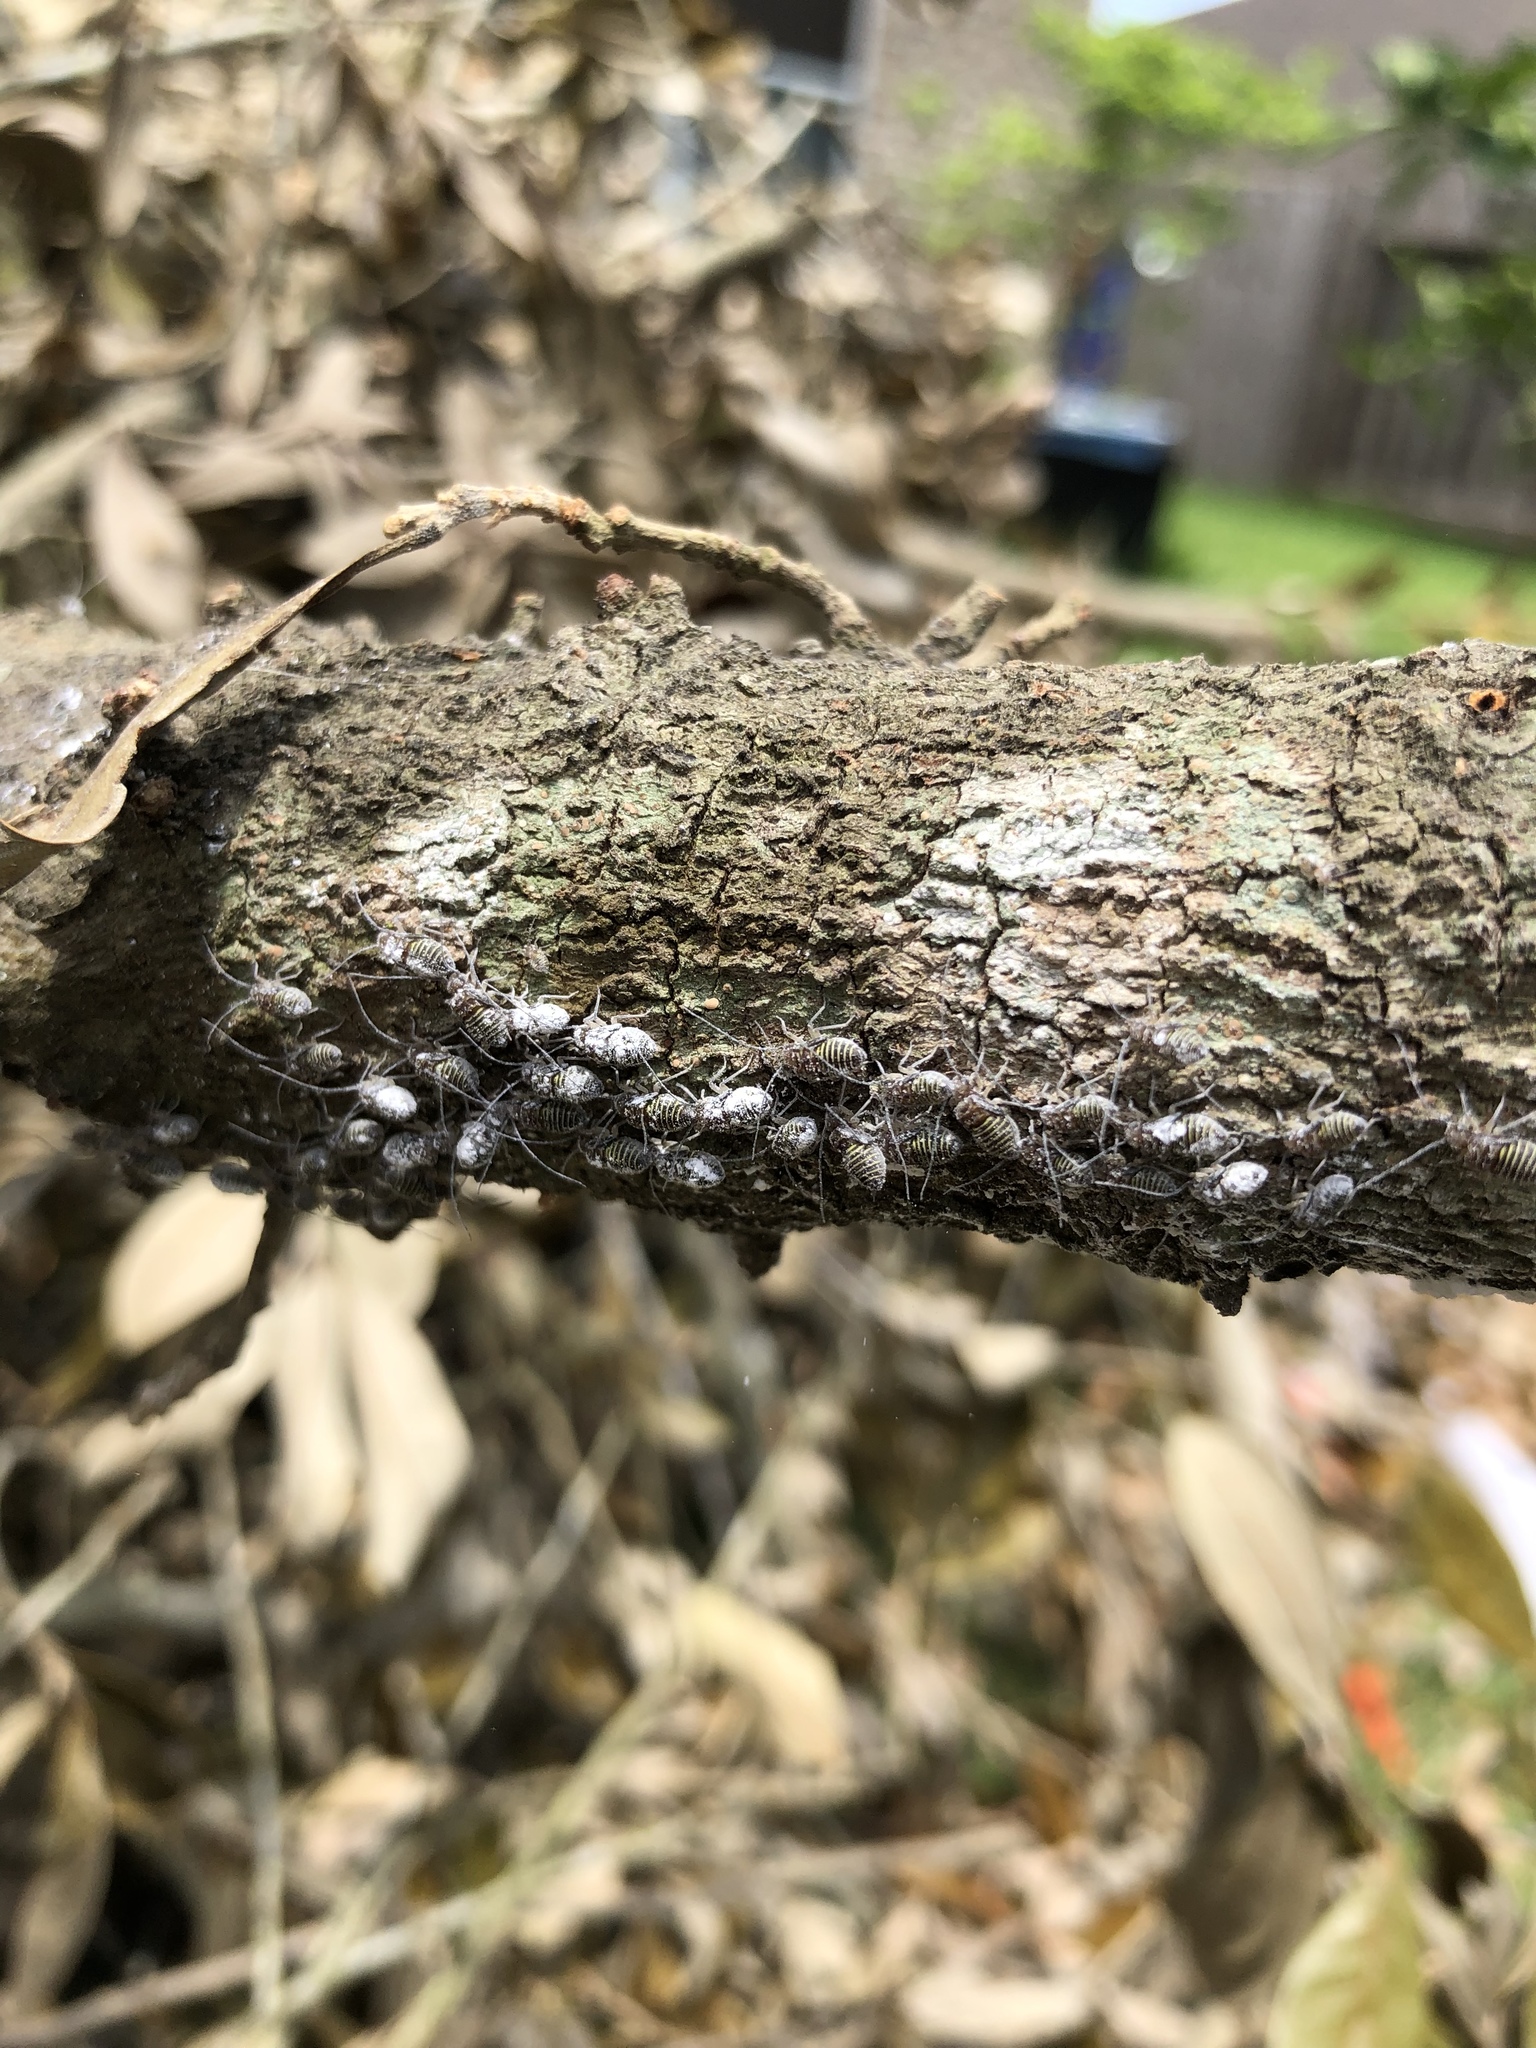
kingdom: Animalia
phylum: Arthropoda
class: Insecta
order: Psocodea
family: Psocidae
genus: Cerastipsocus
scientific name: Cerastipsocus venosus
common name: Tree cattle
